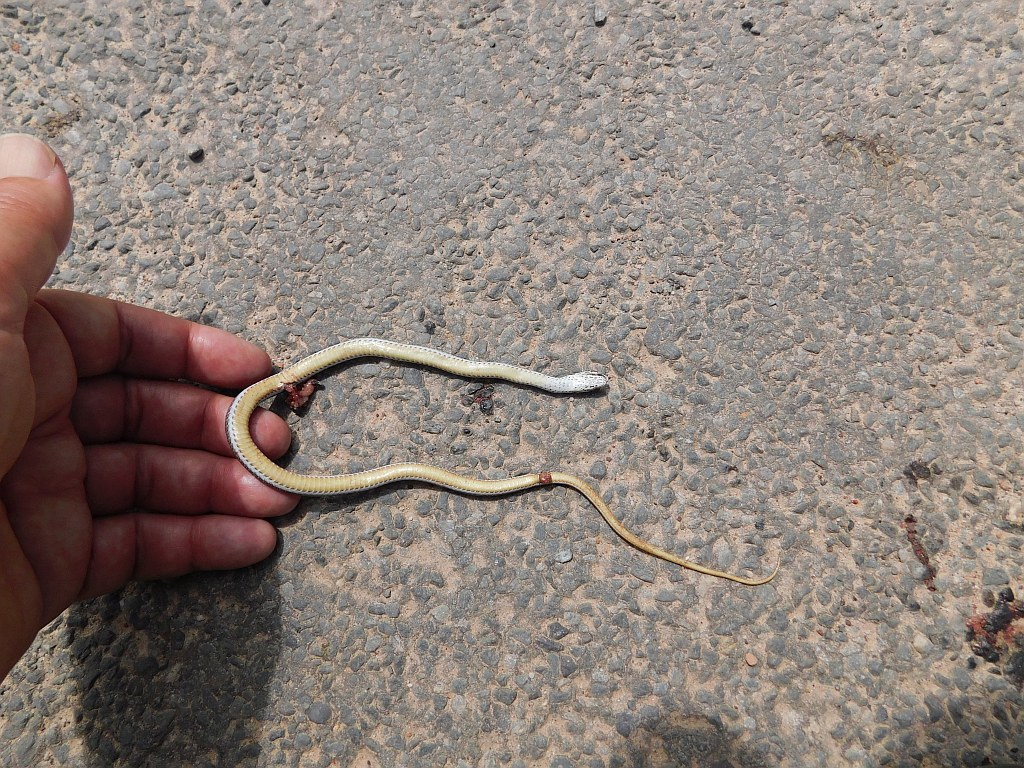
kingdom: Animalia
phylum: Chordata
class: Squamata
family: Psammophiidae
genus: Psammophis
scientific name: Psammophis crucifer
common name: Cross-marked grass snake
